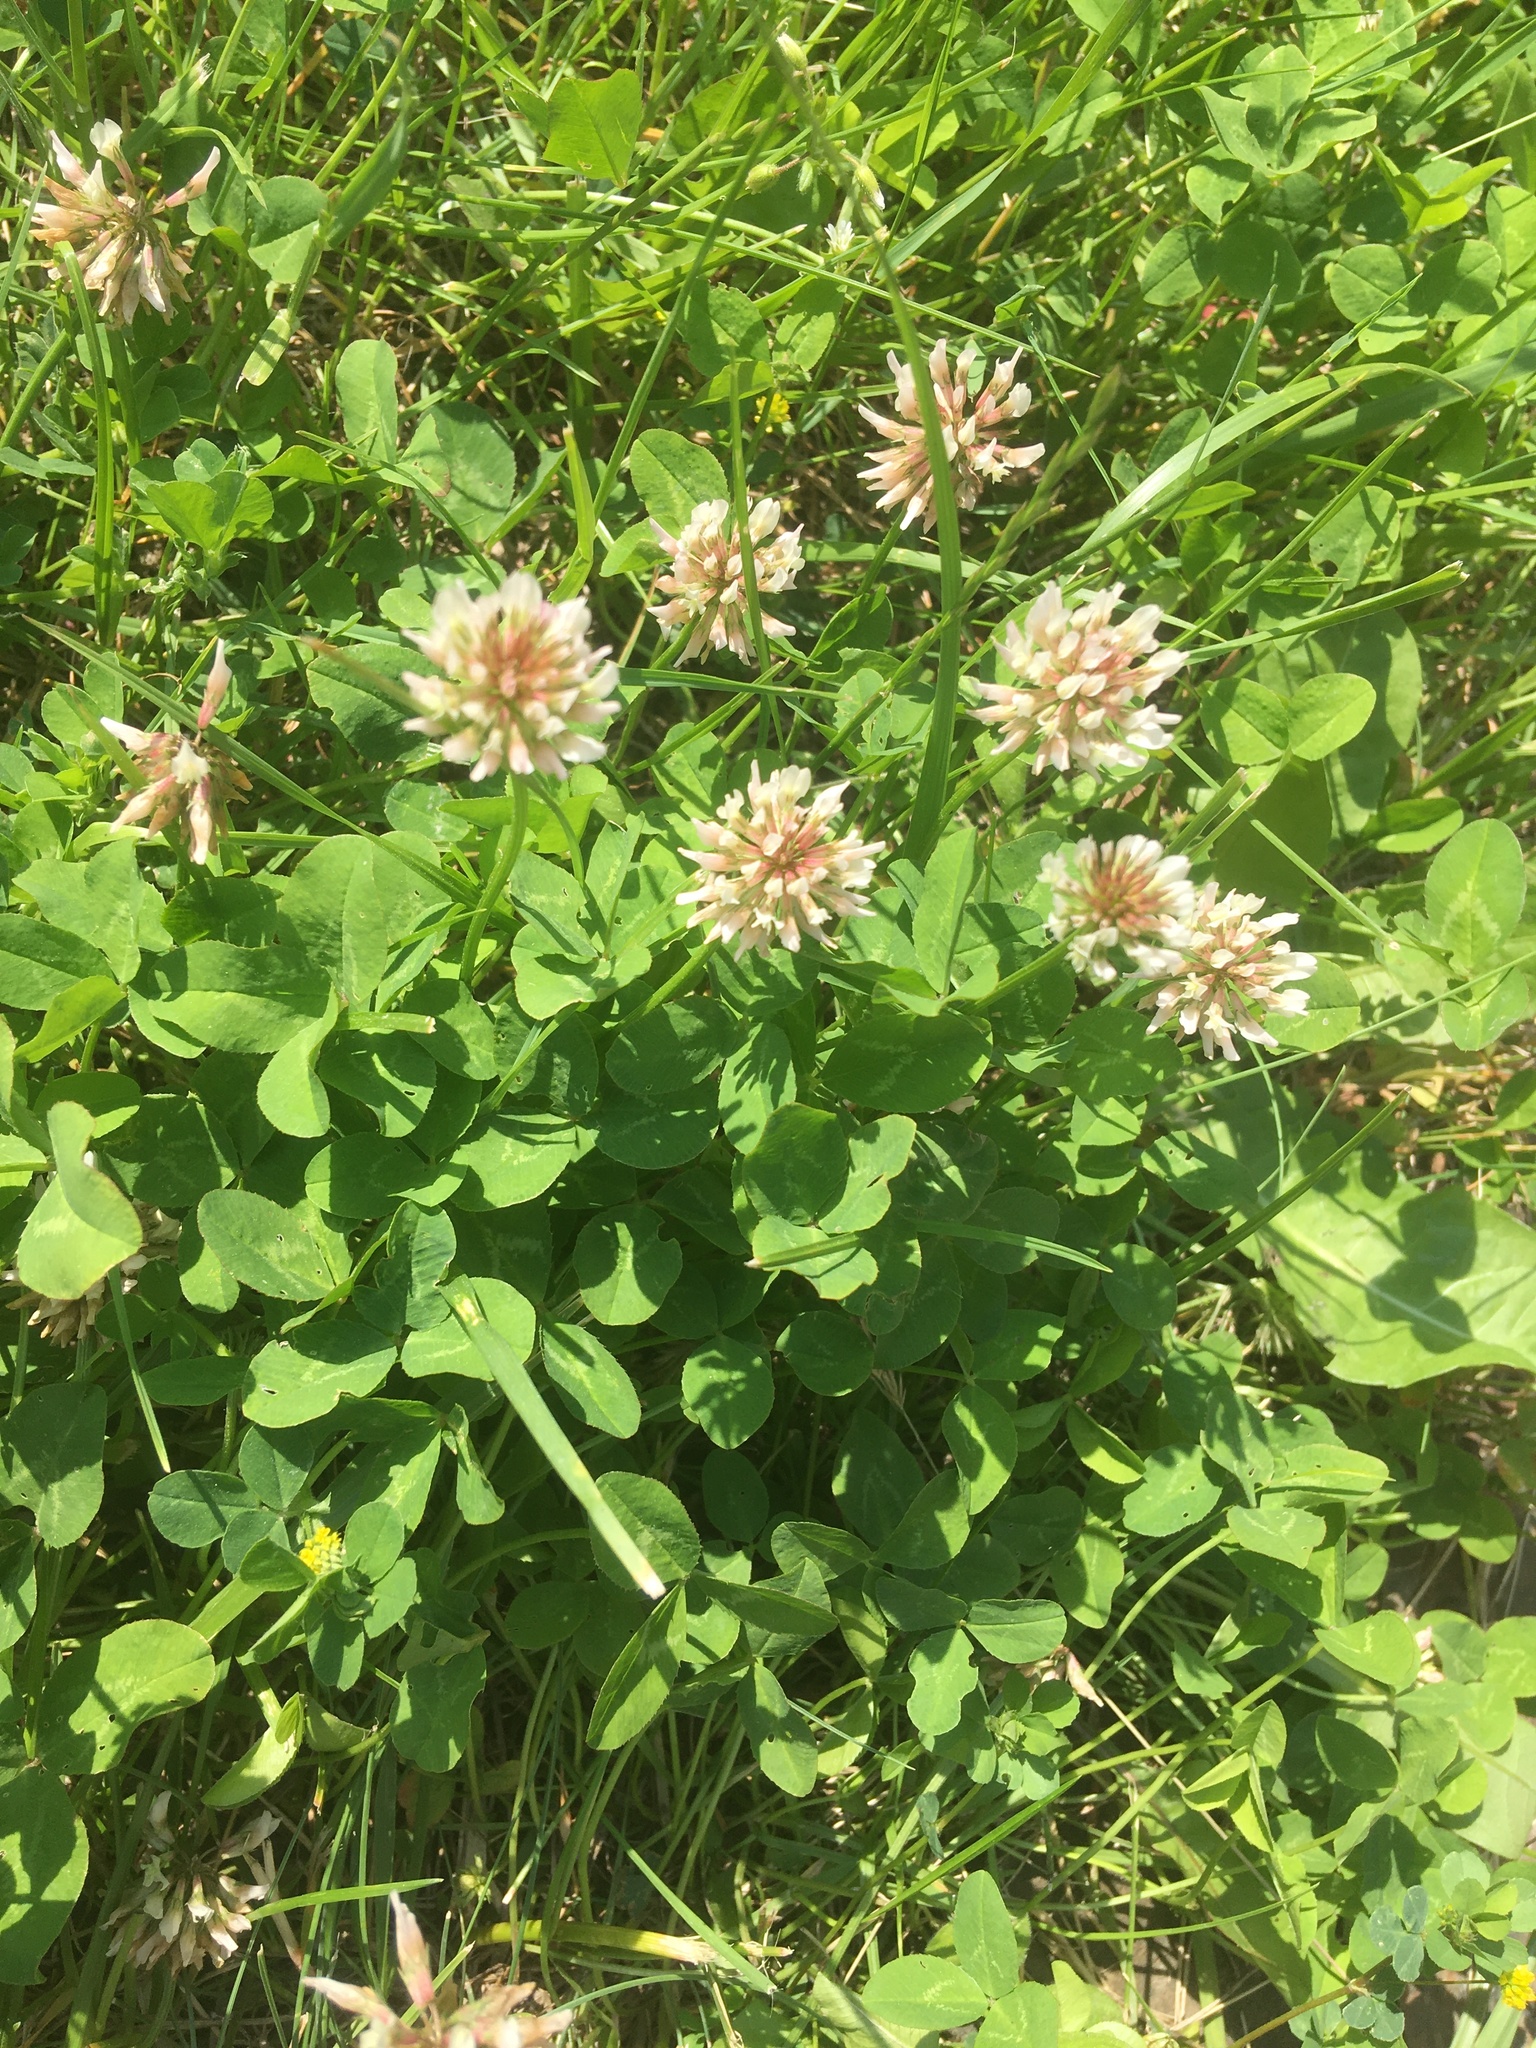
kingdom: Plantae
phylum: Tracheophyta
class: Magnoliopsida
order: Fabales
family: Fabaceae
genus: Trifolium
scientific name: Trifolium repens
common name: White clover
